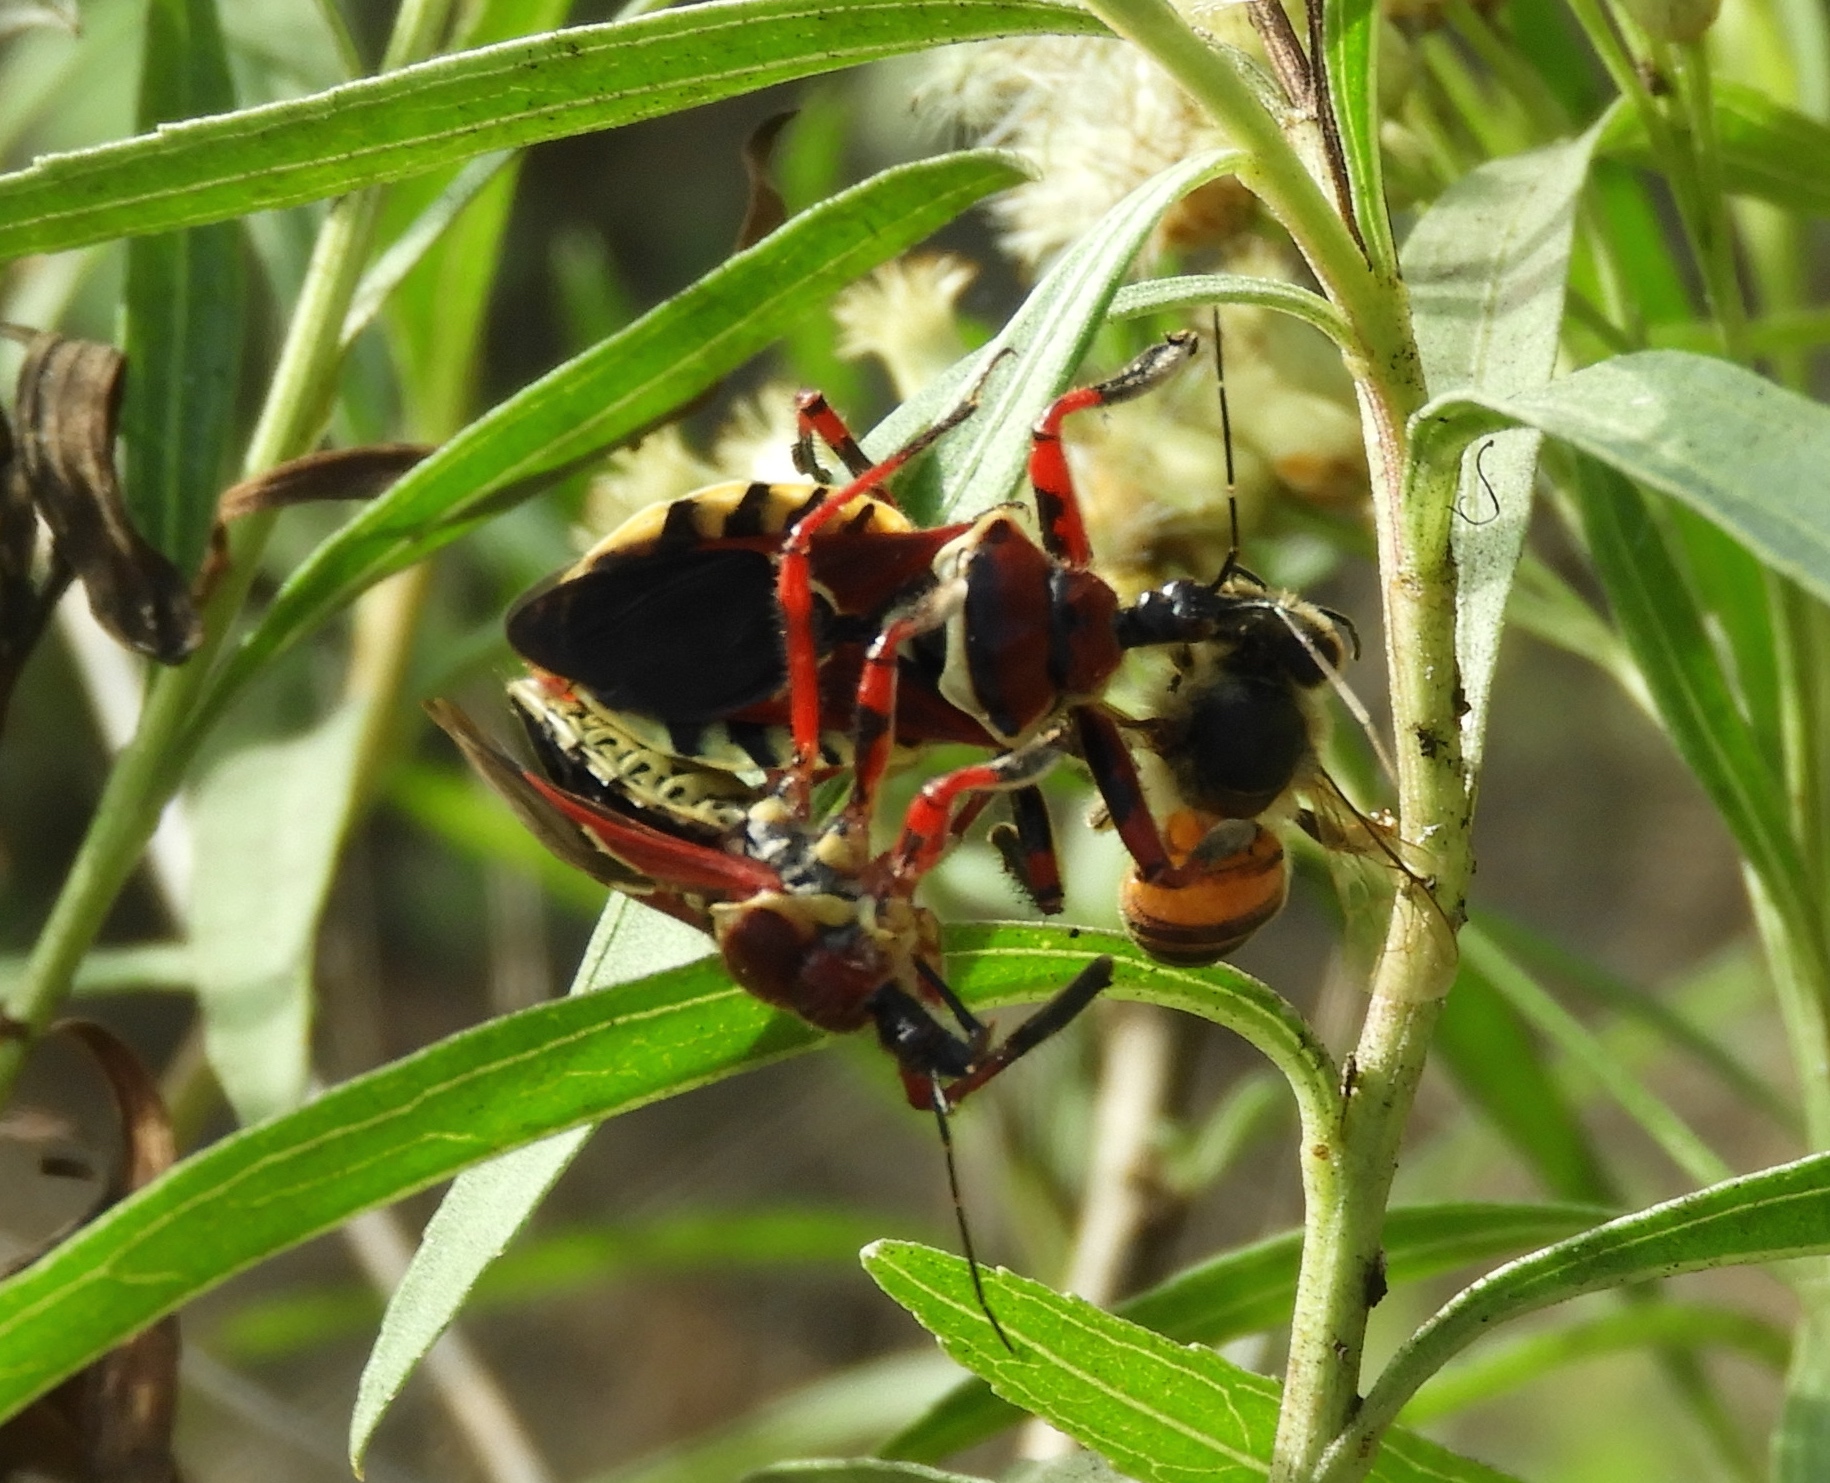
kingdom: Animalia
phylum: Arthropoda
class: Insecta
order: Hemiptera
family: Reduviidae
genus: Apiomerus
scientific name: Apiomerus
